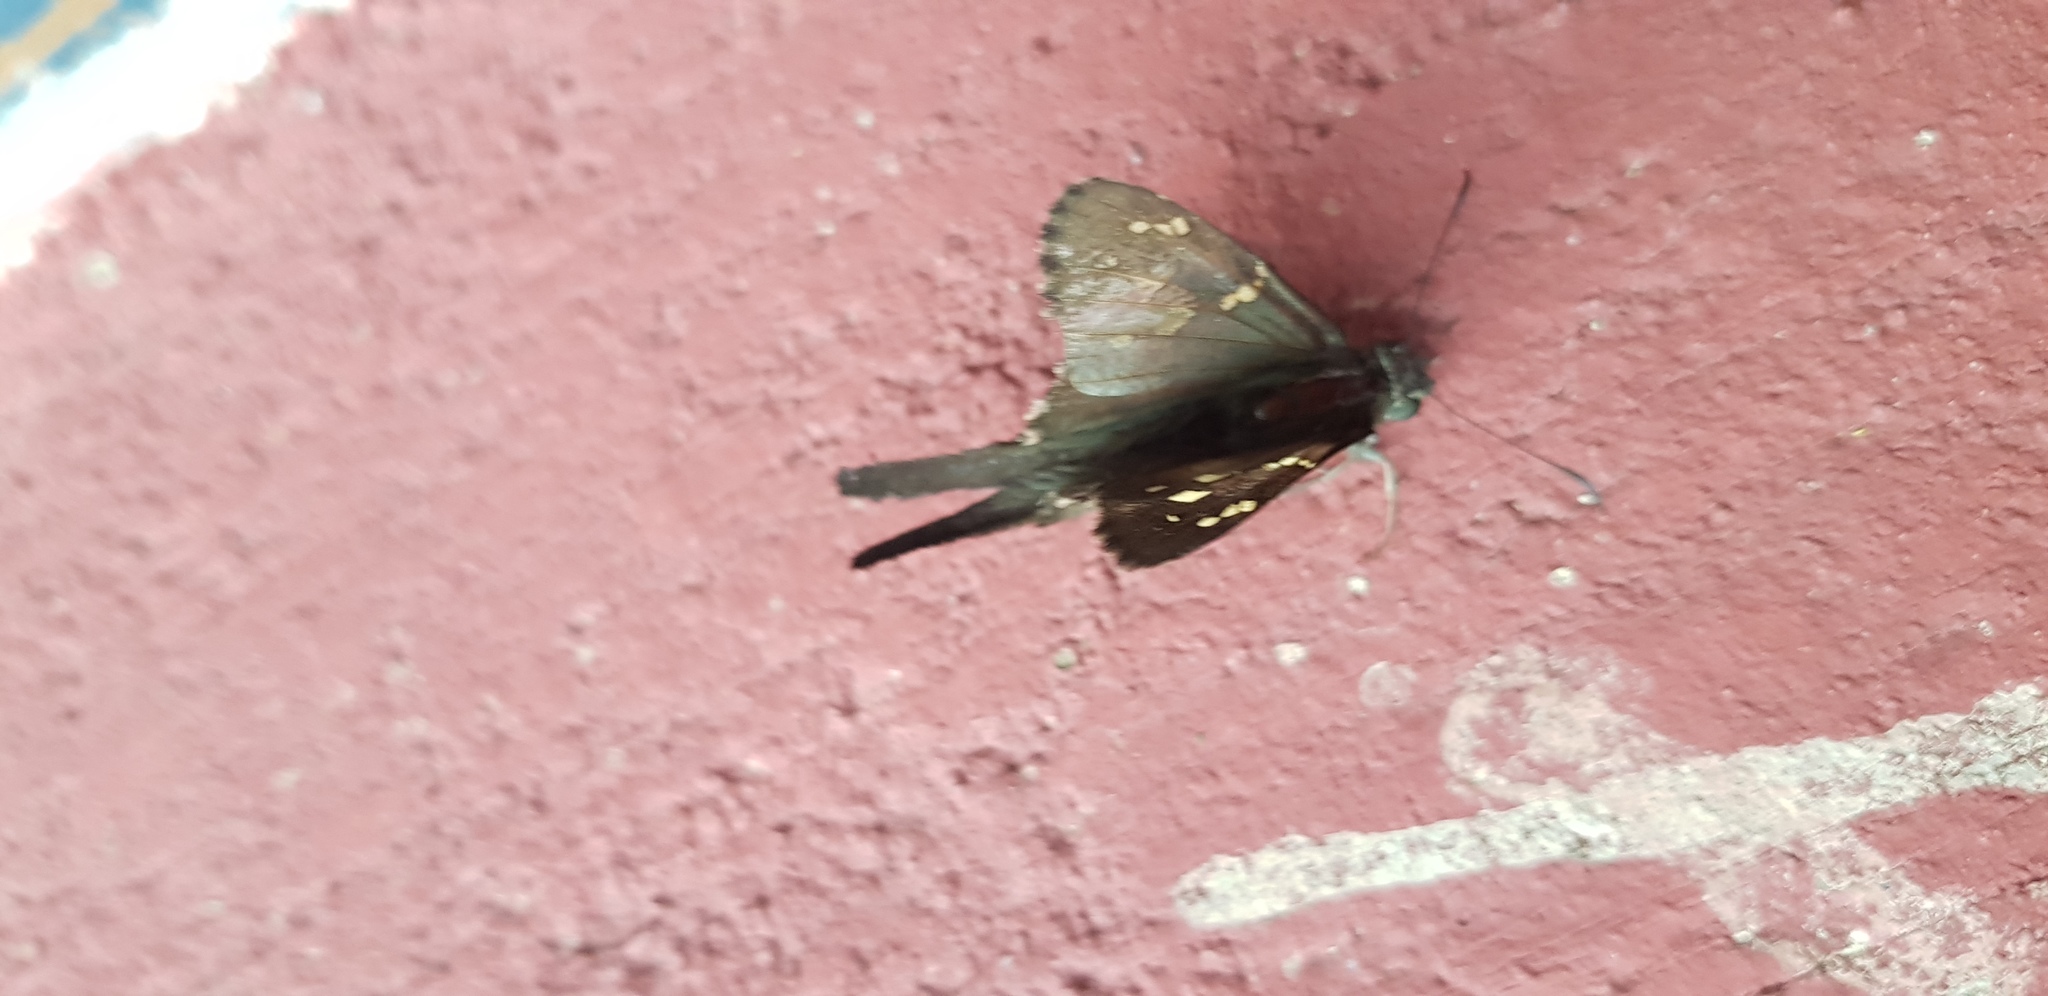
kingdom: Animalia
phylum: Arthropoda
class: Insecta
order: Lepidoptera
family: Hesperiidae
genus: Thorybes
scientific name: Thorybes
